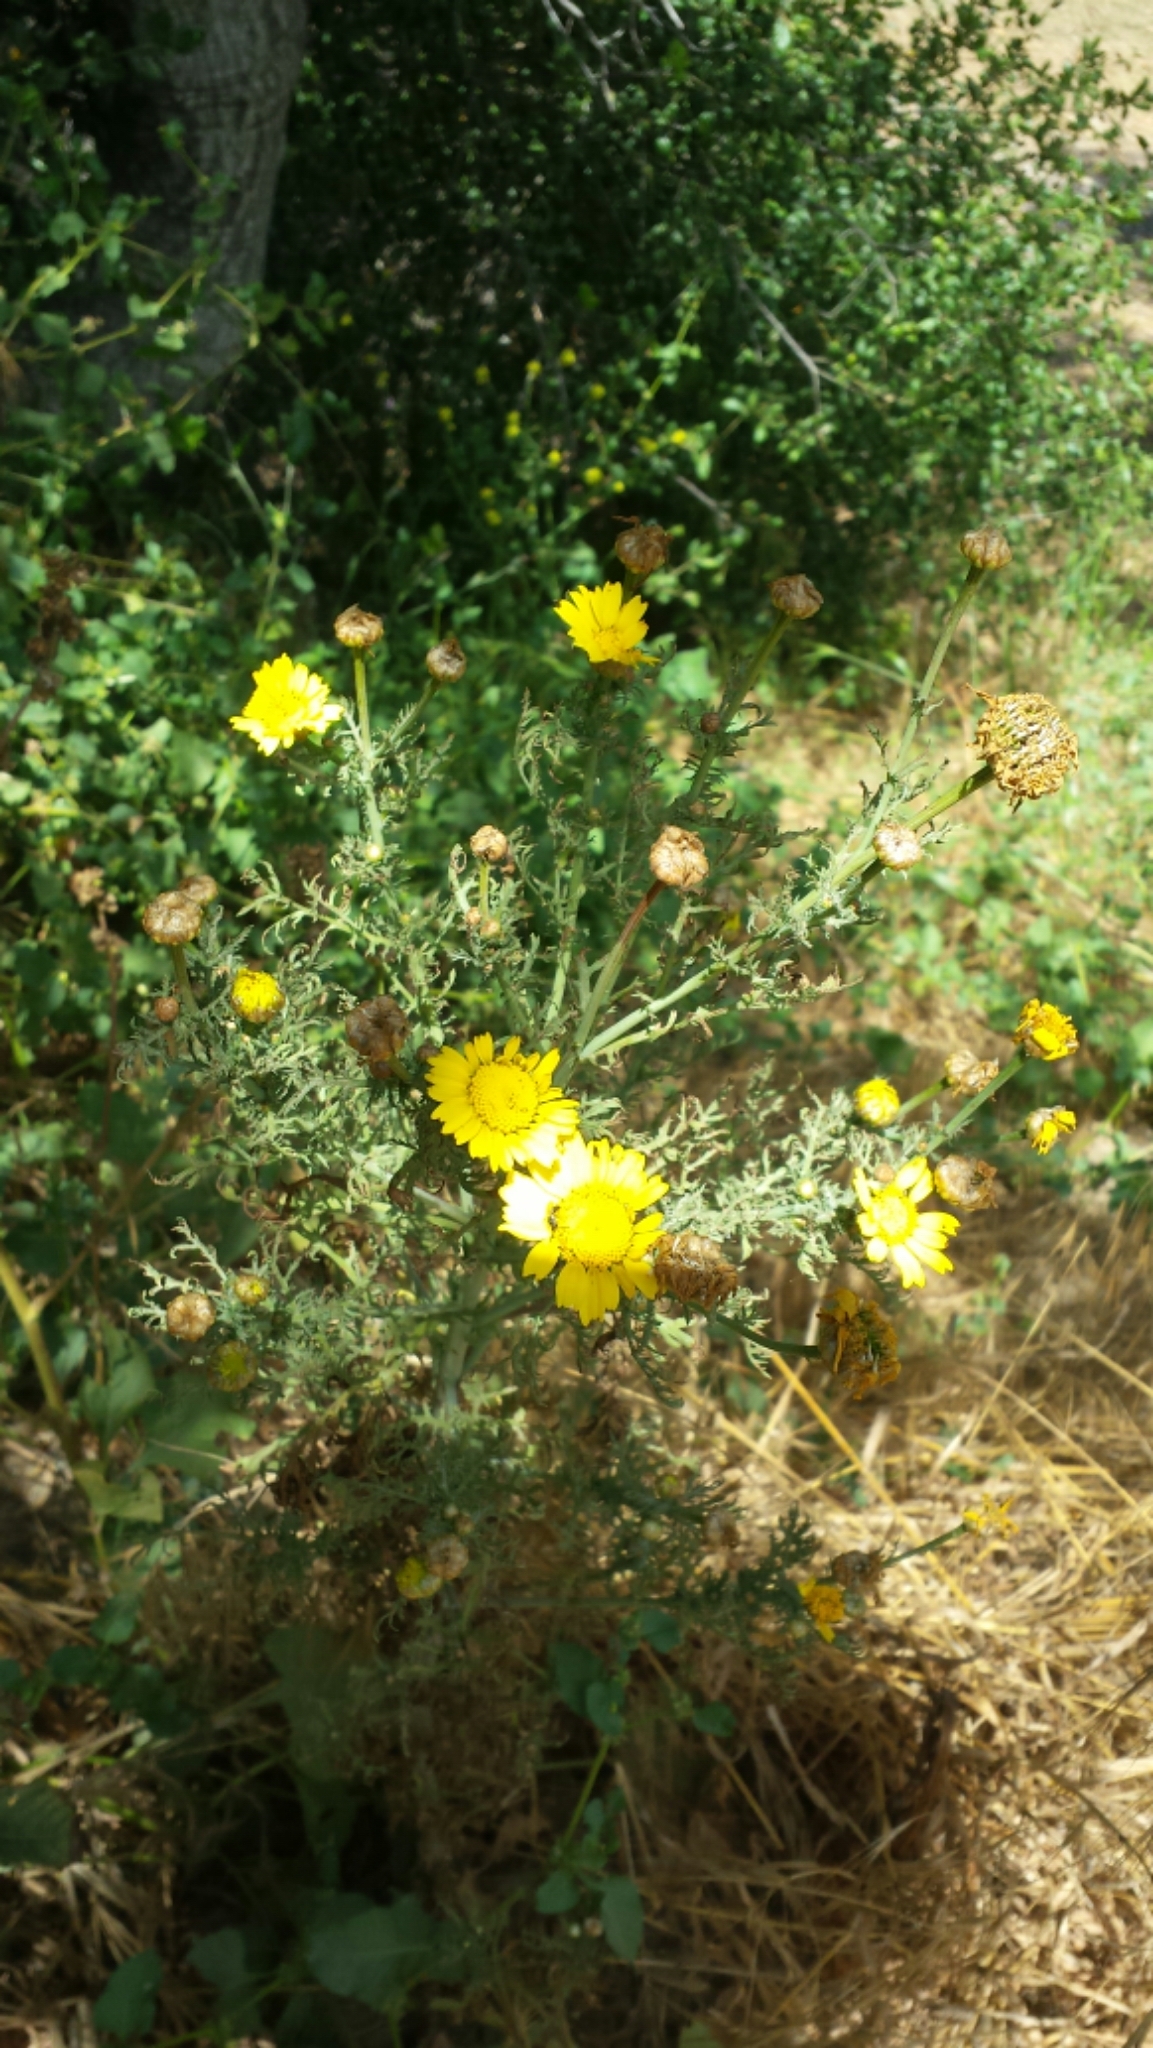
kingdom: Plantae
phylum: Tracheophyta
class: Magnoliopsida
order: Asterales
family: Asteraceae
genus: Glebionis
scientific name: Glebionis coronaria
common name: Crowndaisy
